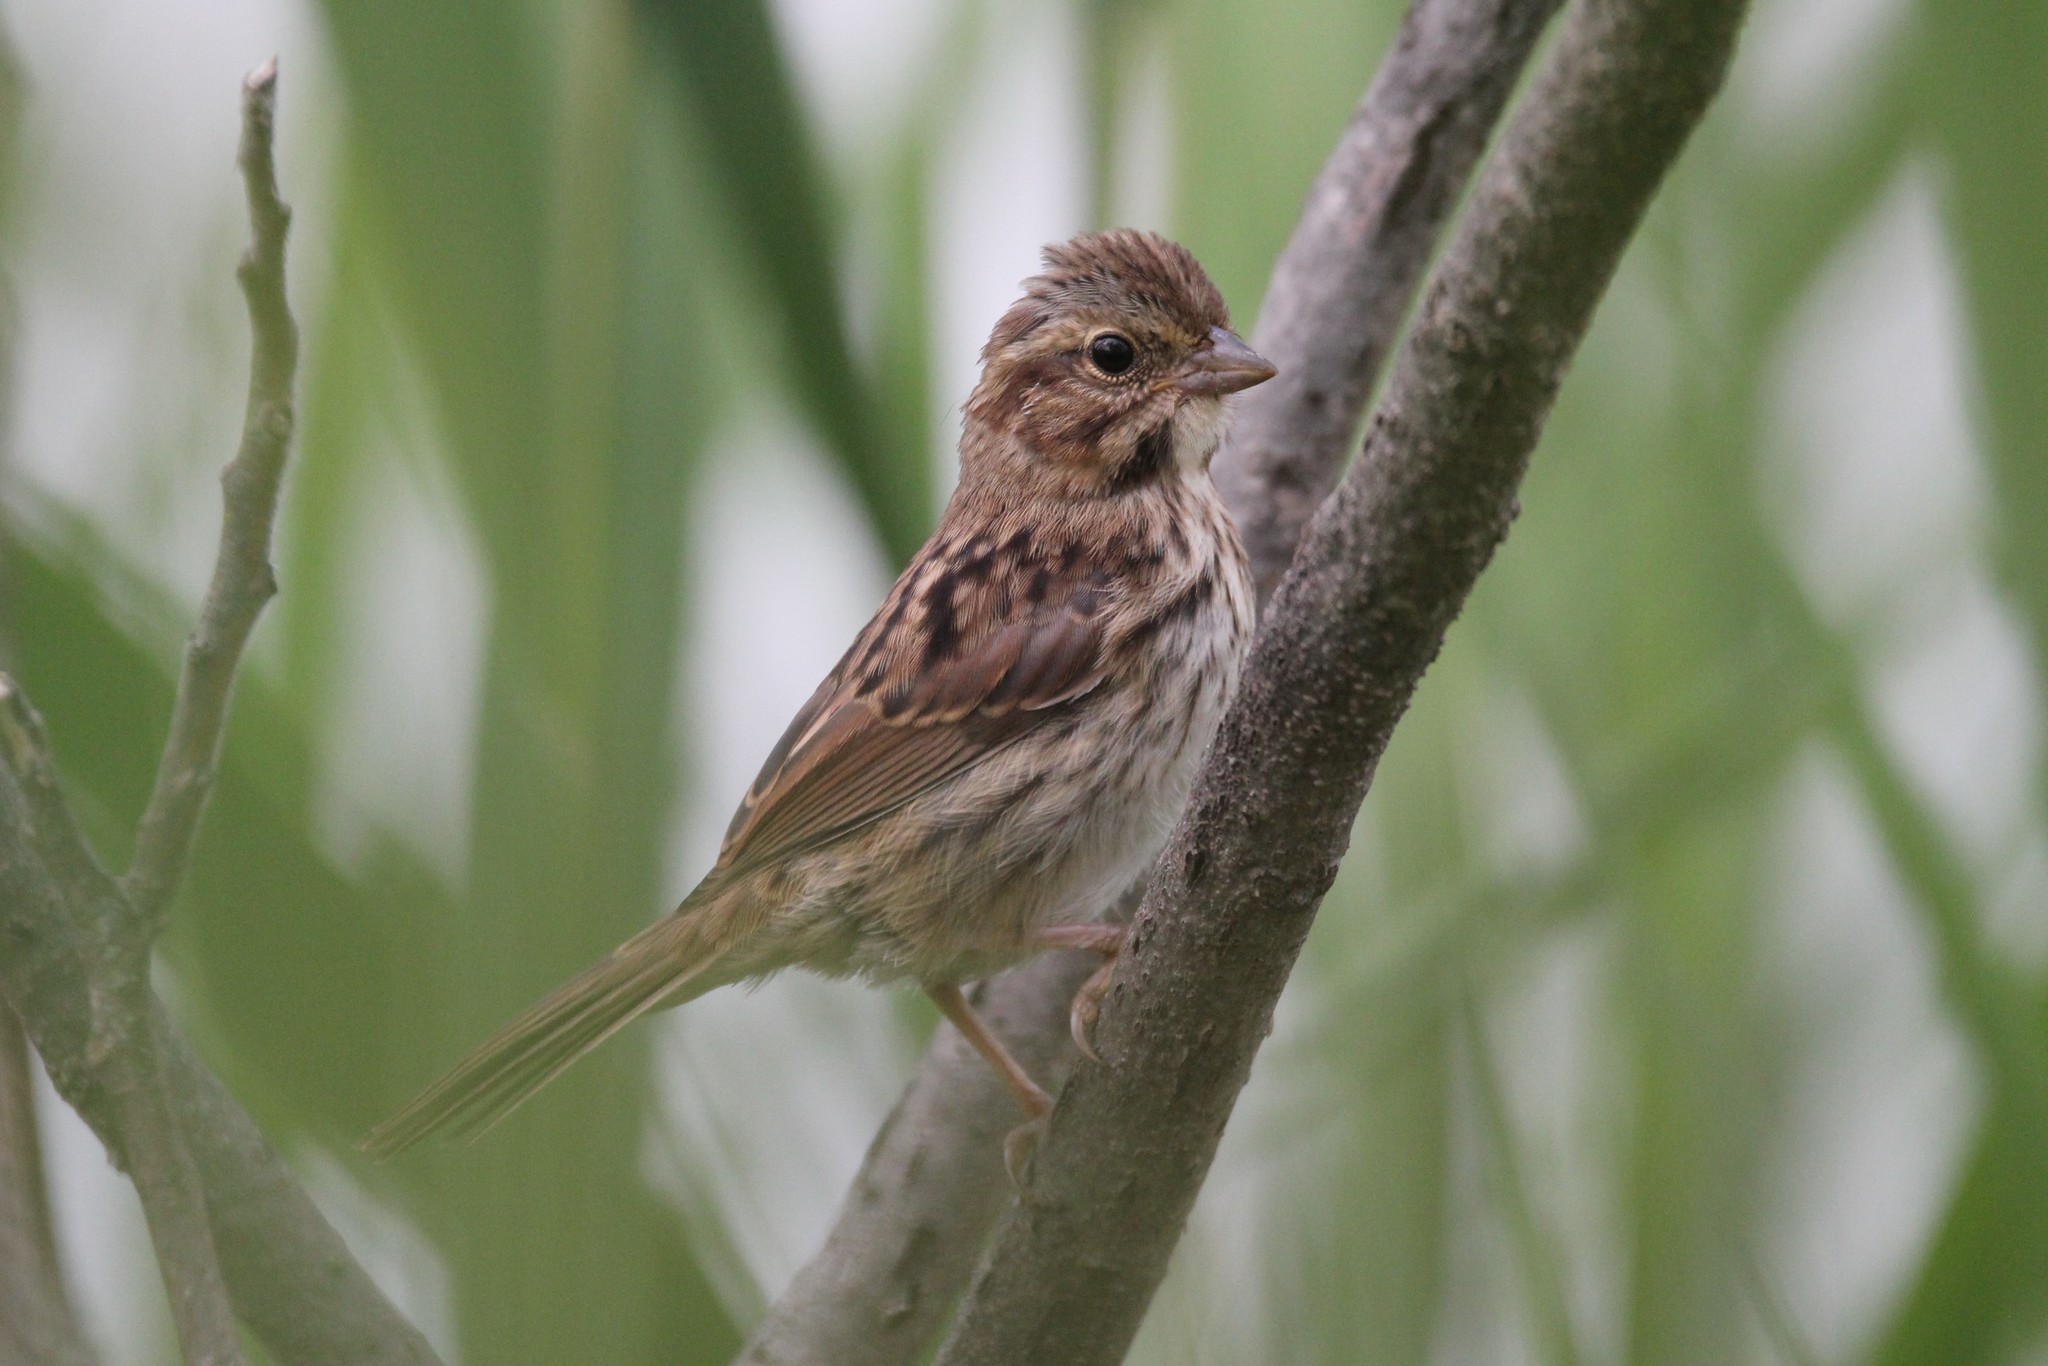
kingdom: Animalia
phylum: Chordata
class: Aves
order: Passeriformes
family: Passerellidae
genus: Melospiza
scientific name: Melospiza melodia
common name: Song sparrow
